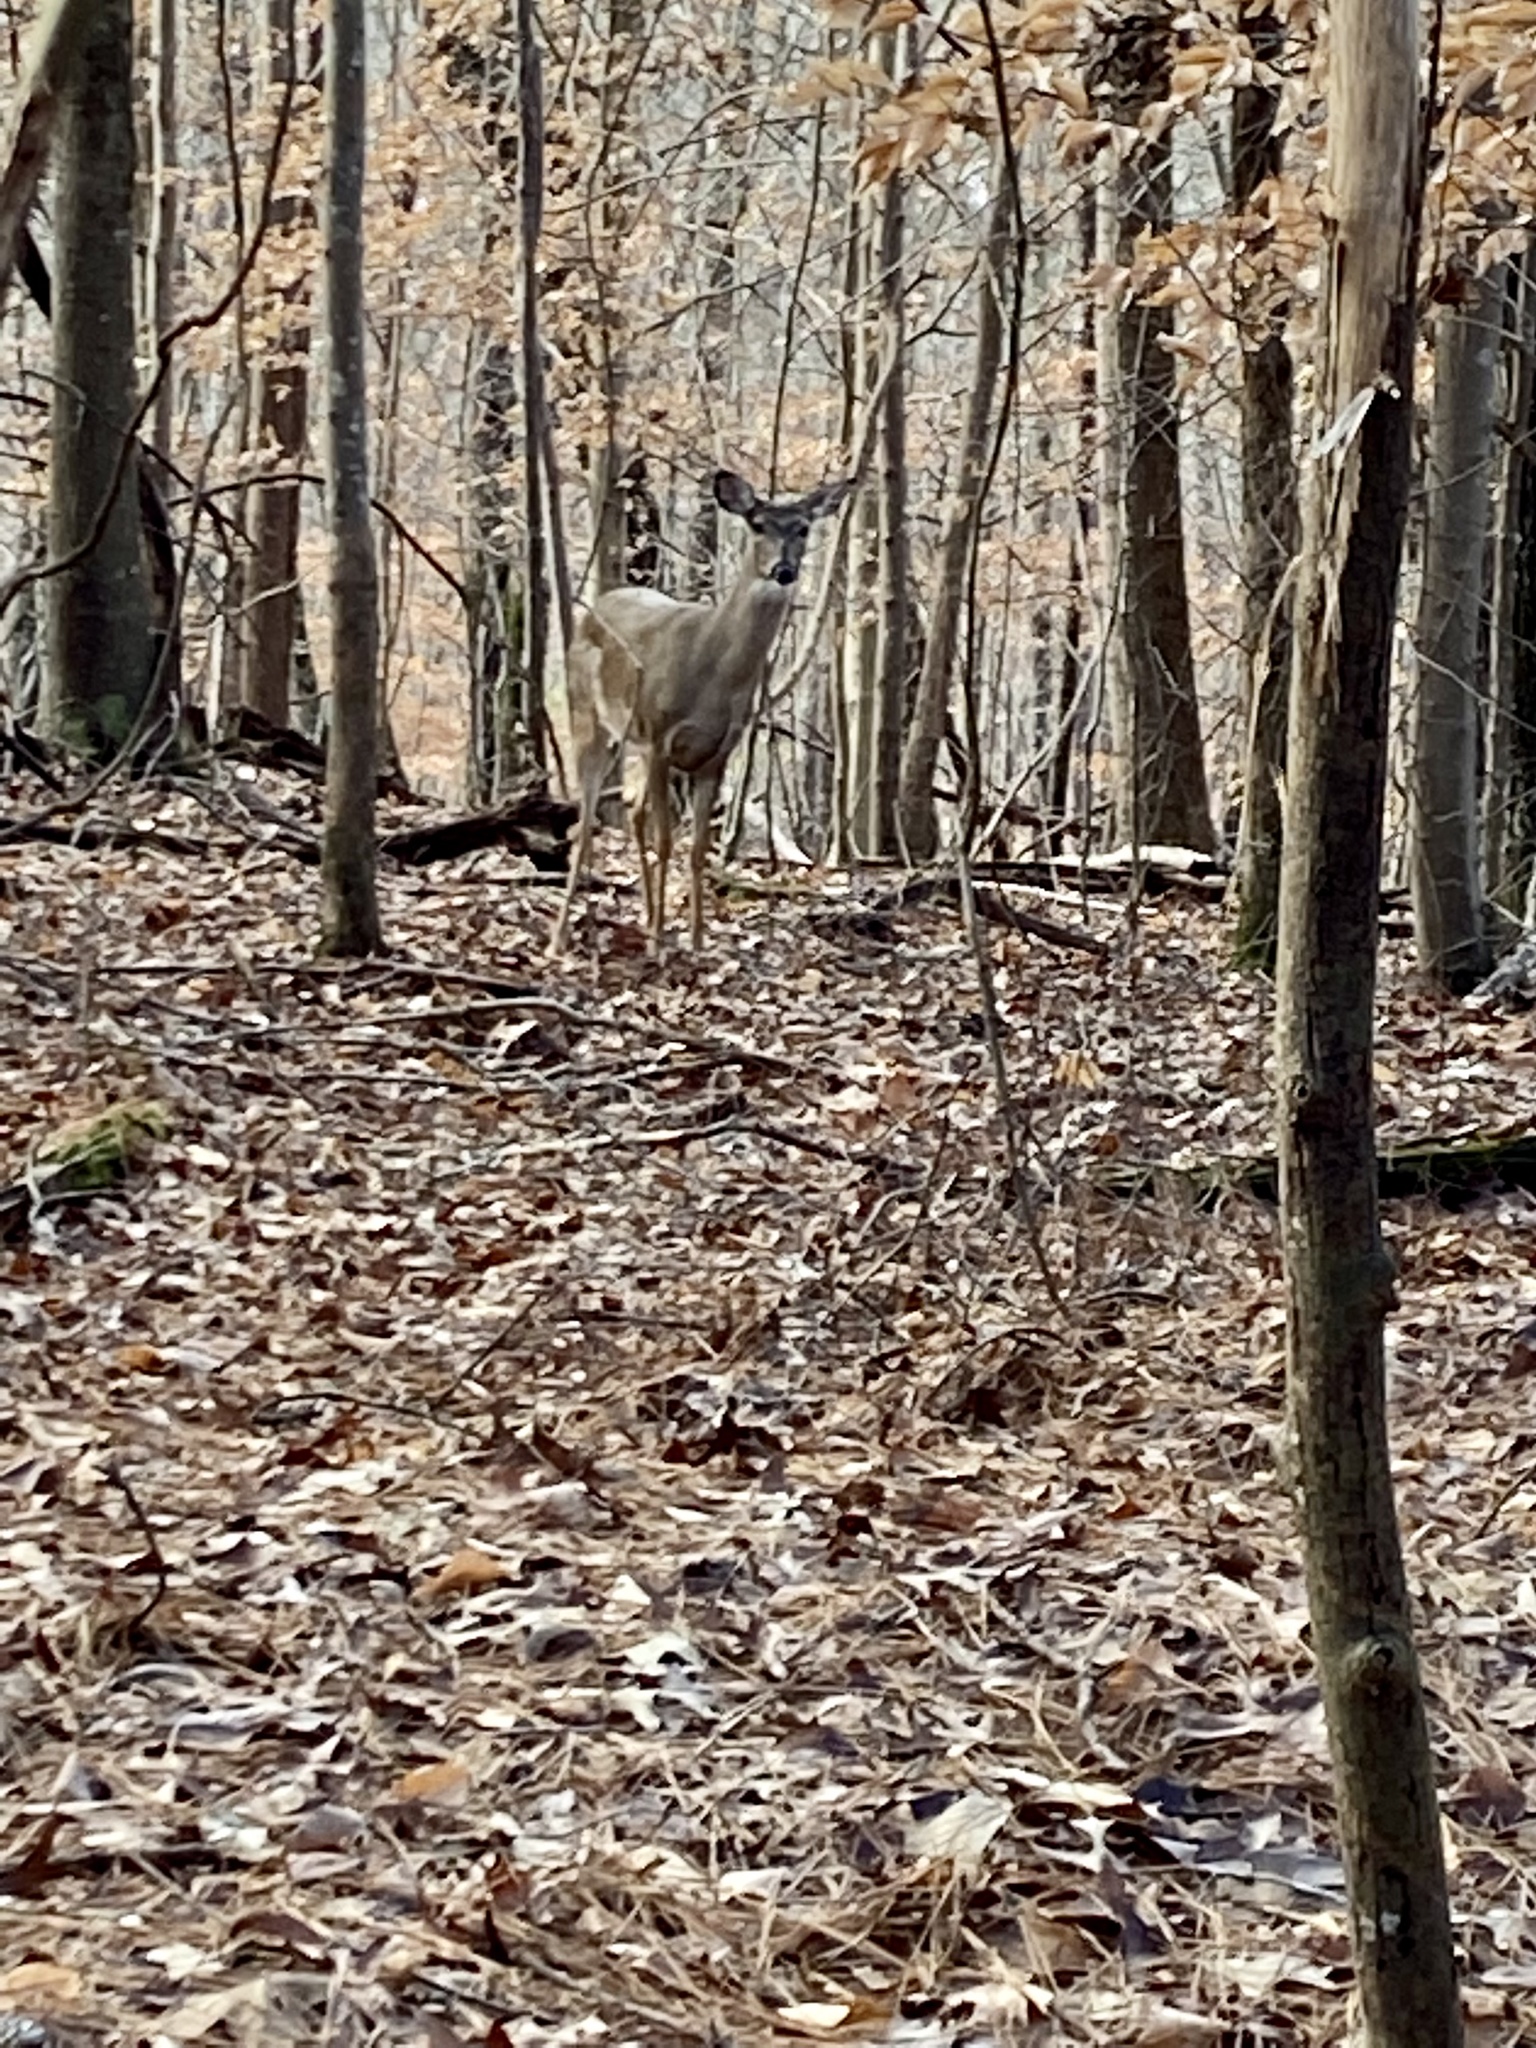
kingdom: Animalia
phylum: Chordata
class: Mammalia
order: Artiodactyla
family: Cervidae
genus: Odocoileus
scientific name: Odocoileus virginianus
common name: White-tailed deer
